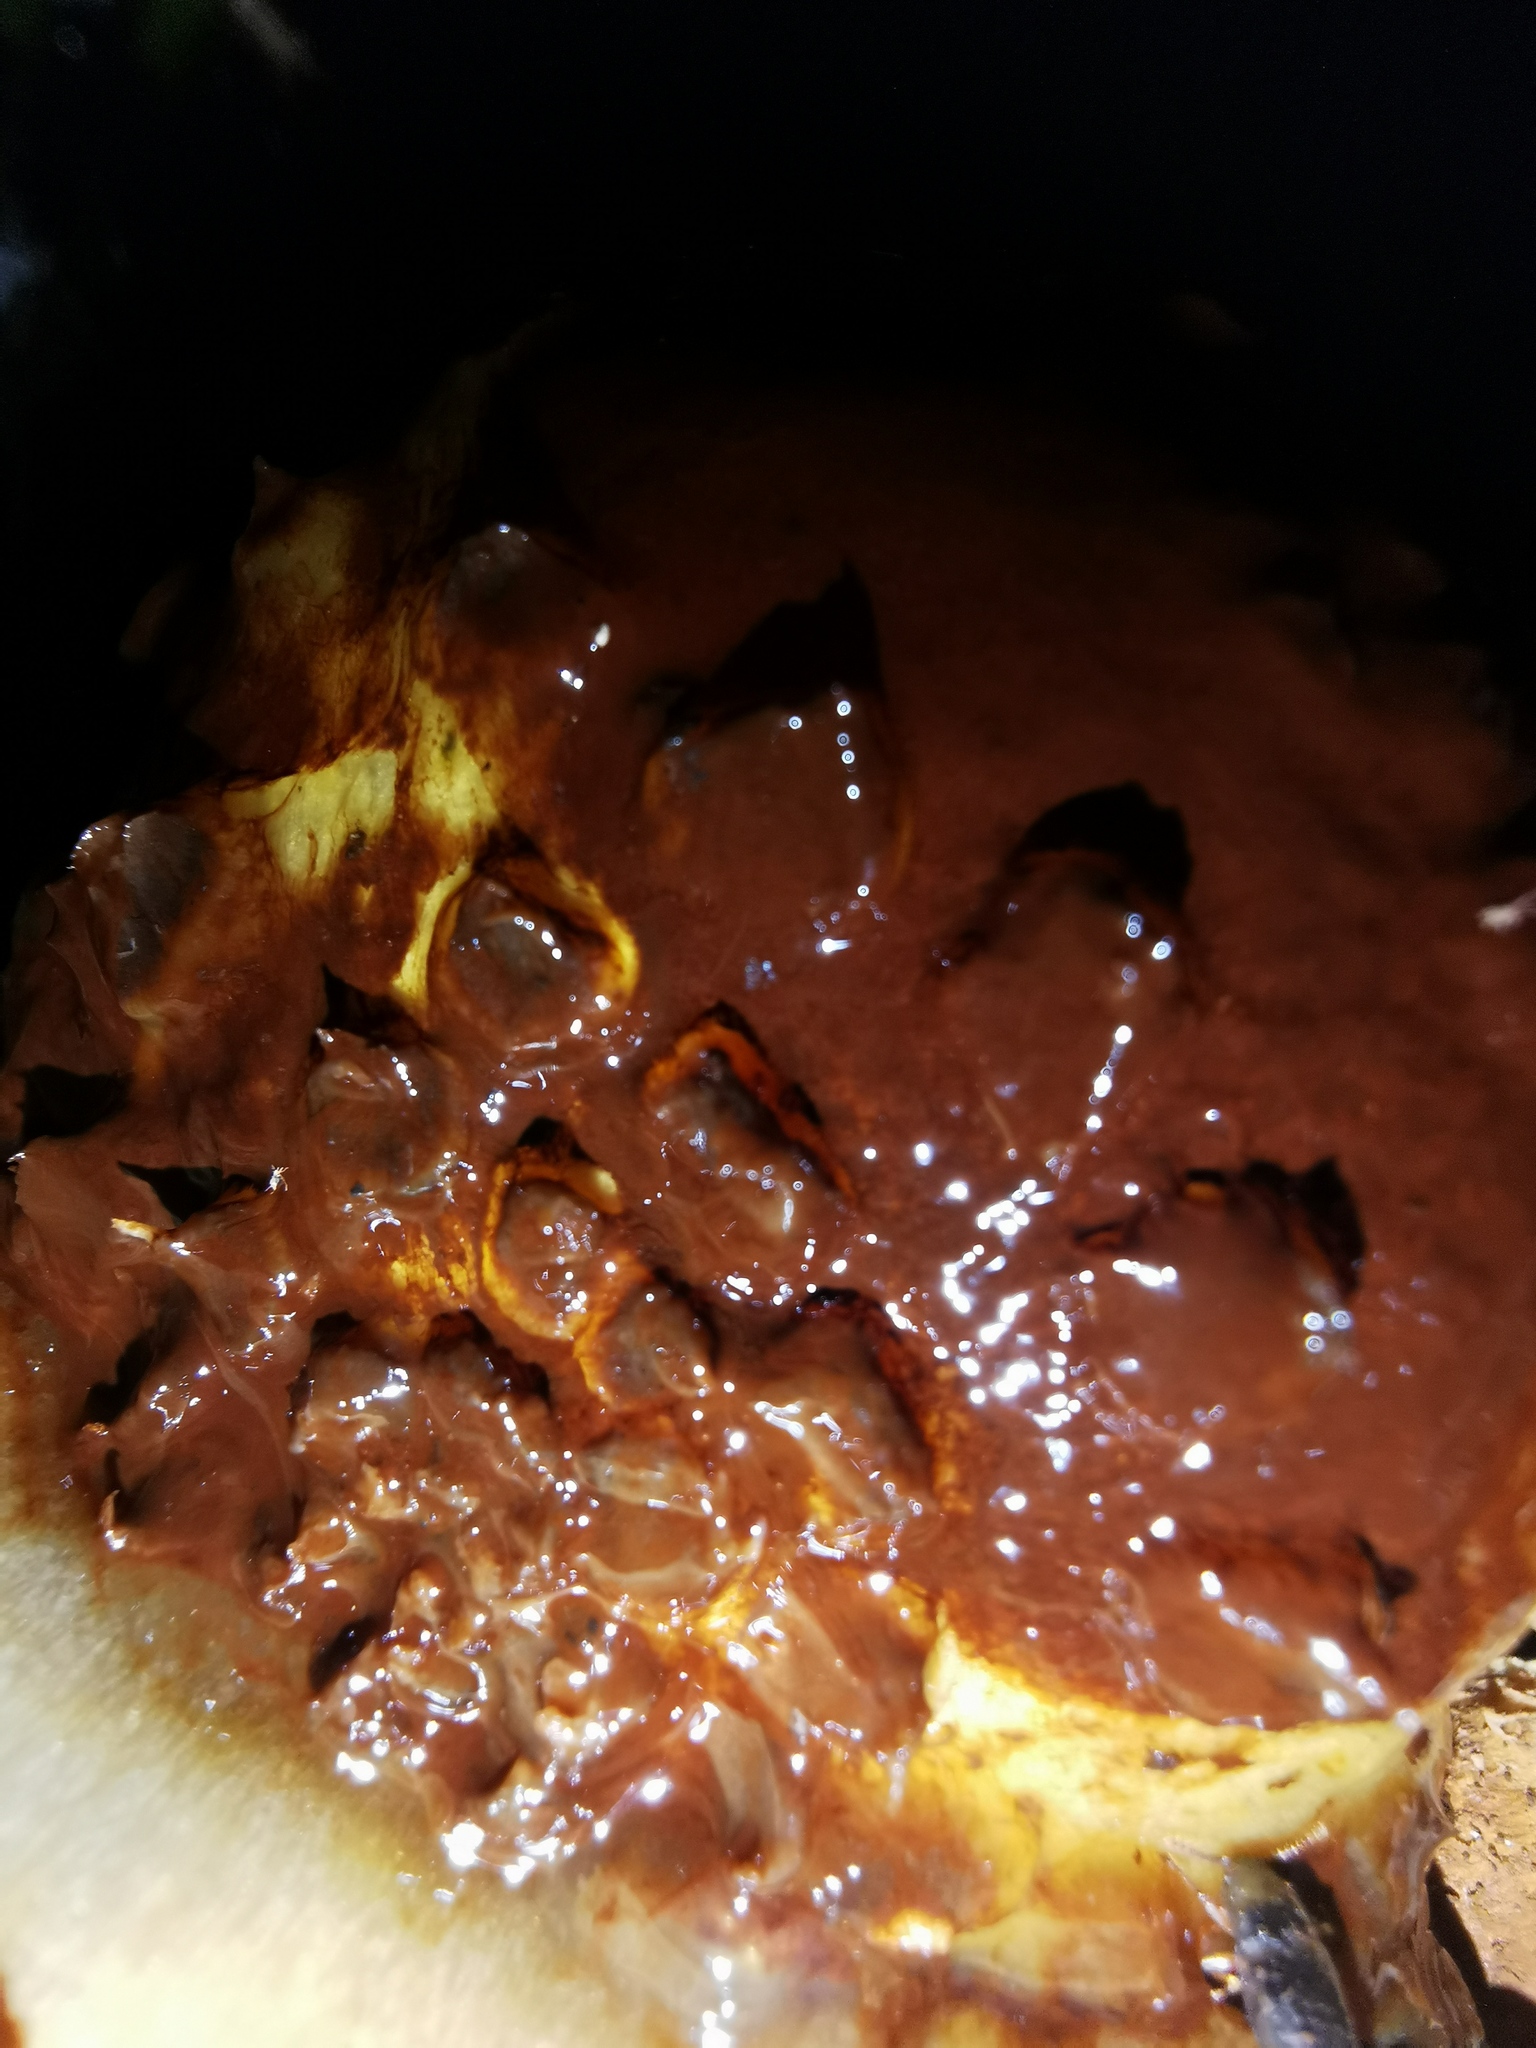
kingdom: Fungi
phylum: Basidiomycota
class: Agaricomycetes
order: Agaricales
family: Strophariaceae
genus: Pholiota
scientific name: Pholiota glutinosa
